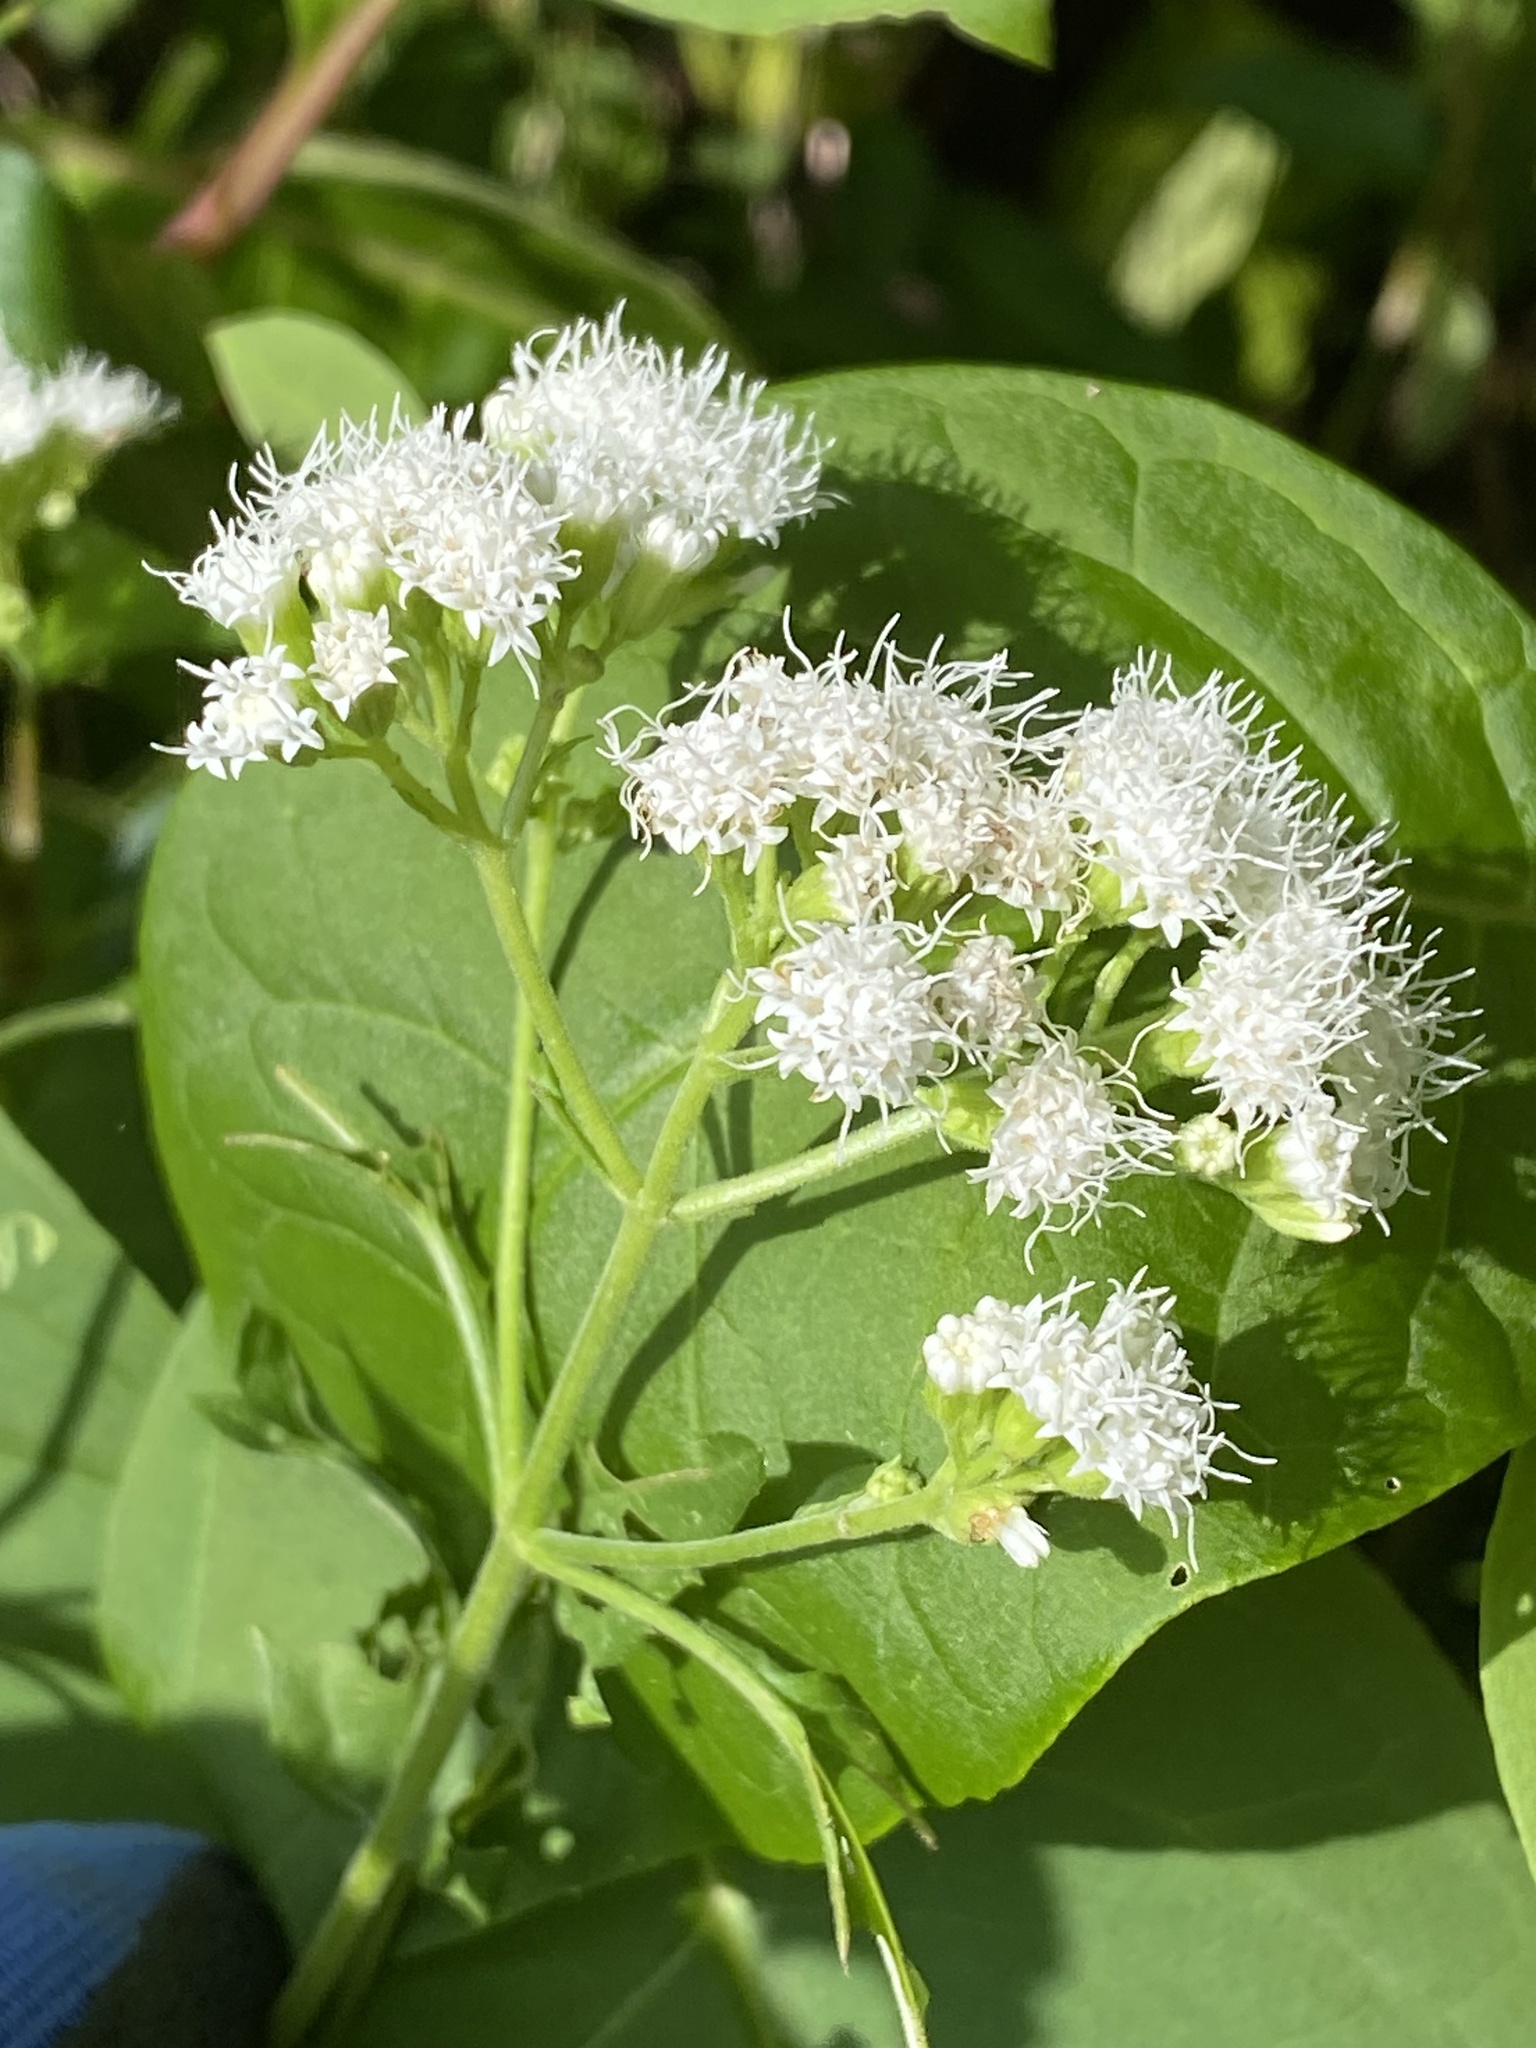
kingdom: Plantae
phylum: Tracheophyta
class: Magnoliopsida
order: Asterales
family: Asteraceae
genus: Ageratina
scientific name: Ageratina altissima
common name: White snakeroot
